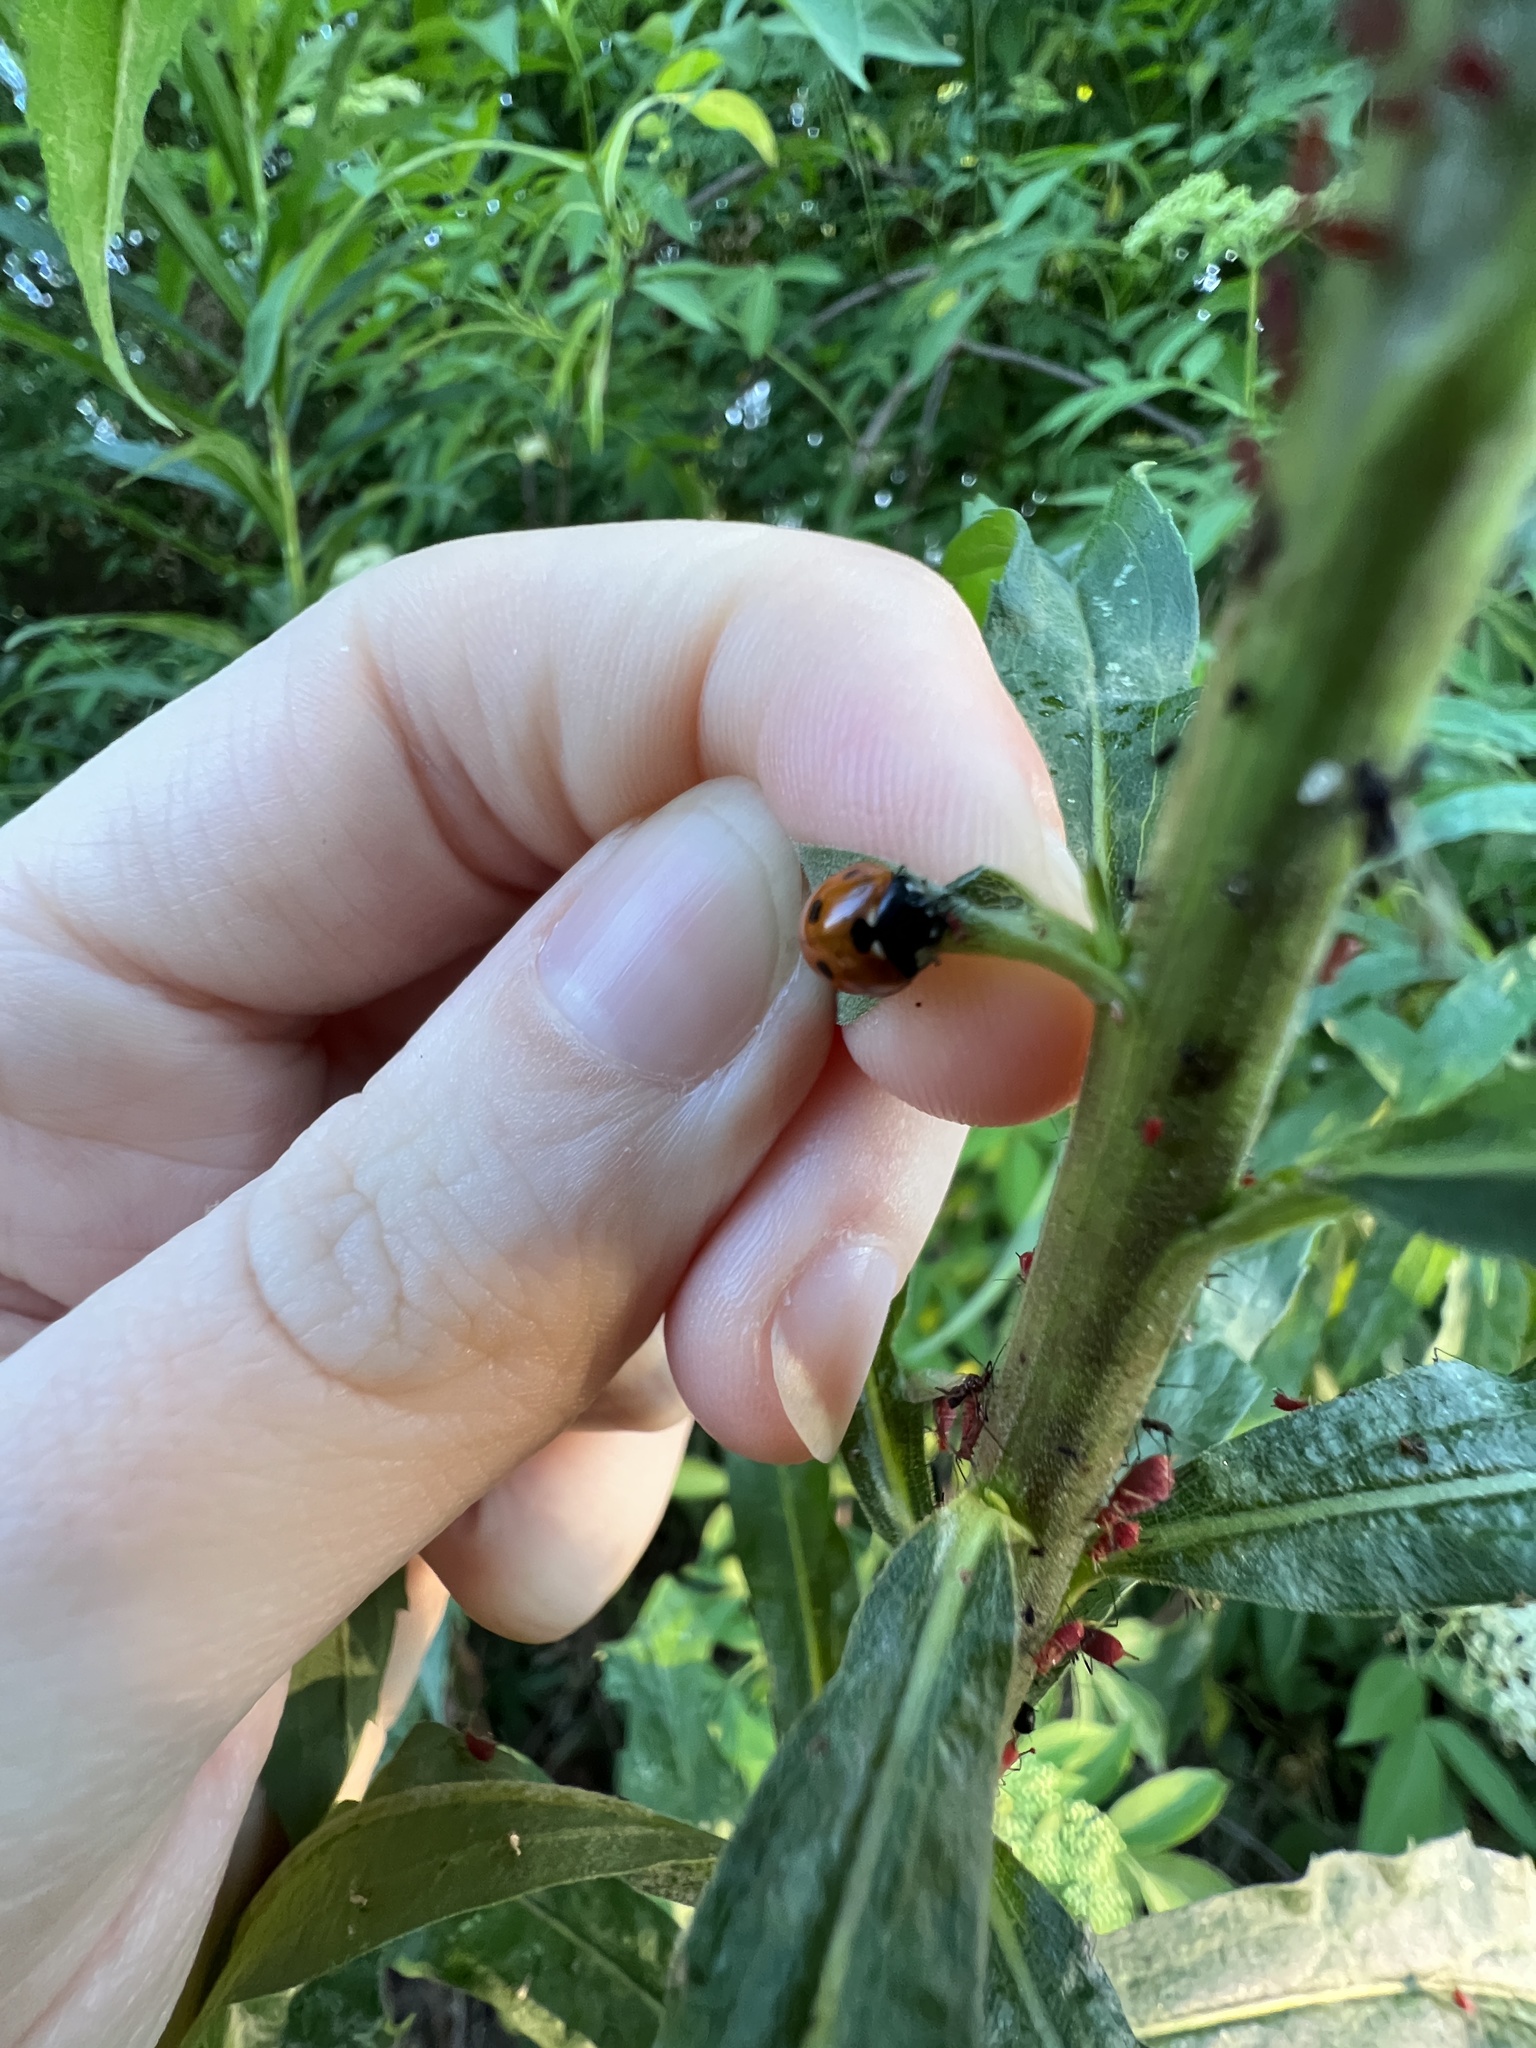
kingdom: Animalia
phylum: Arthropoda
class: Insecta
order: Coleoptera
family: Coccinellidae
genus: Coccinella
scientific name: Coccinella septempunctata
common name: Sevenspotted lady beetle
